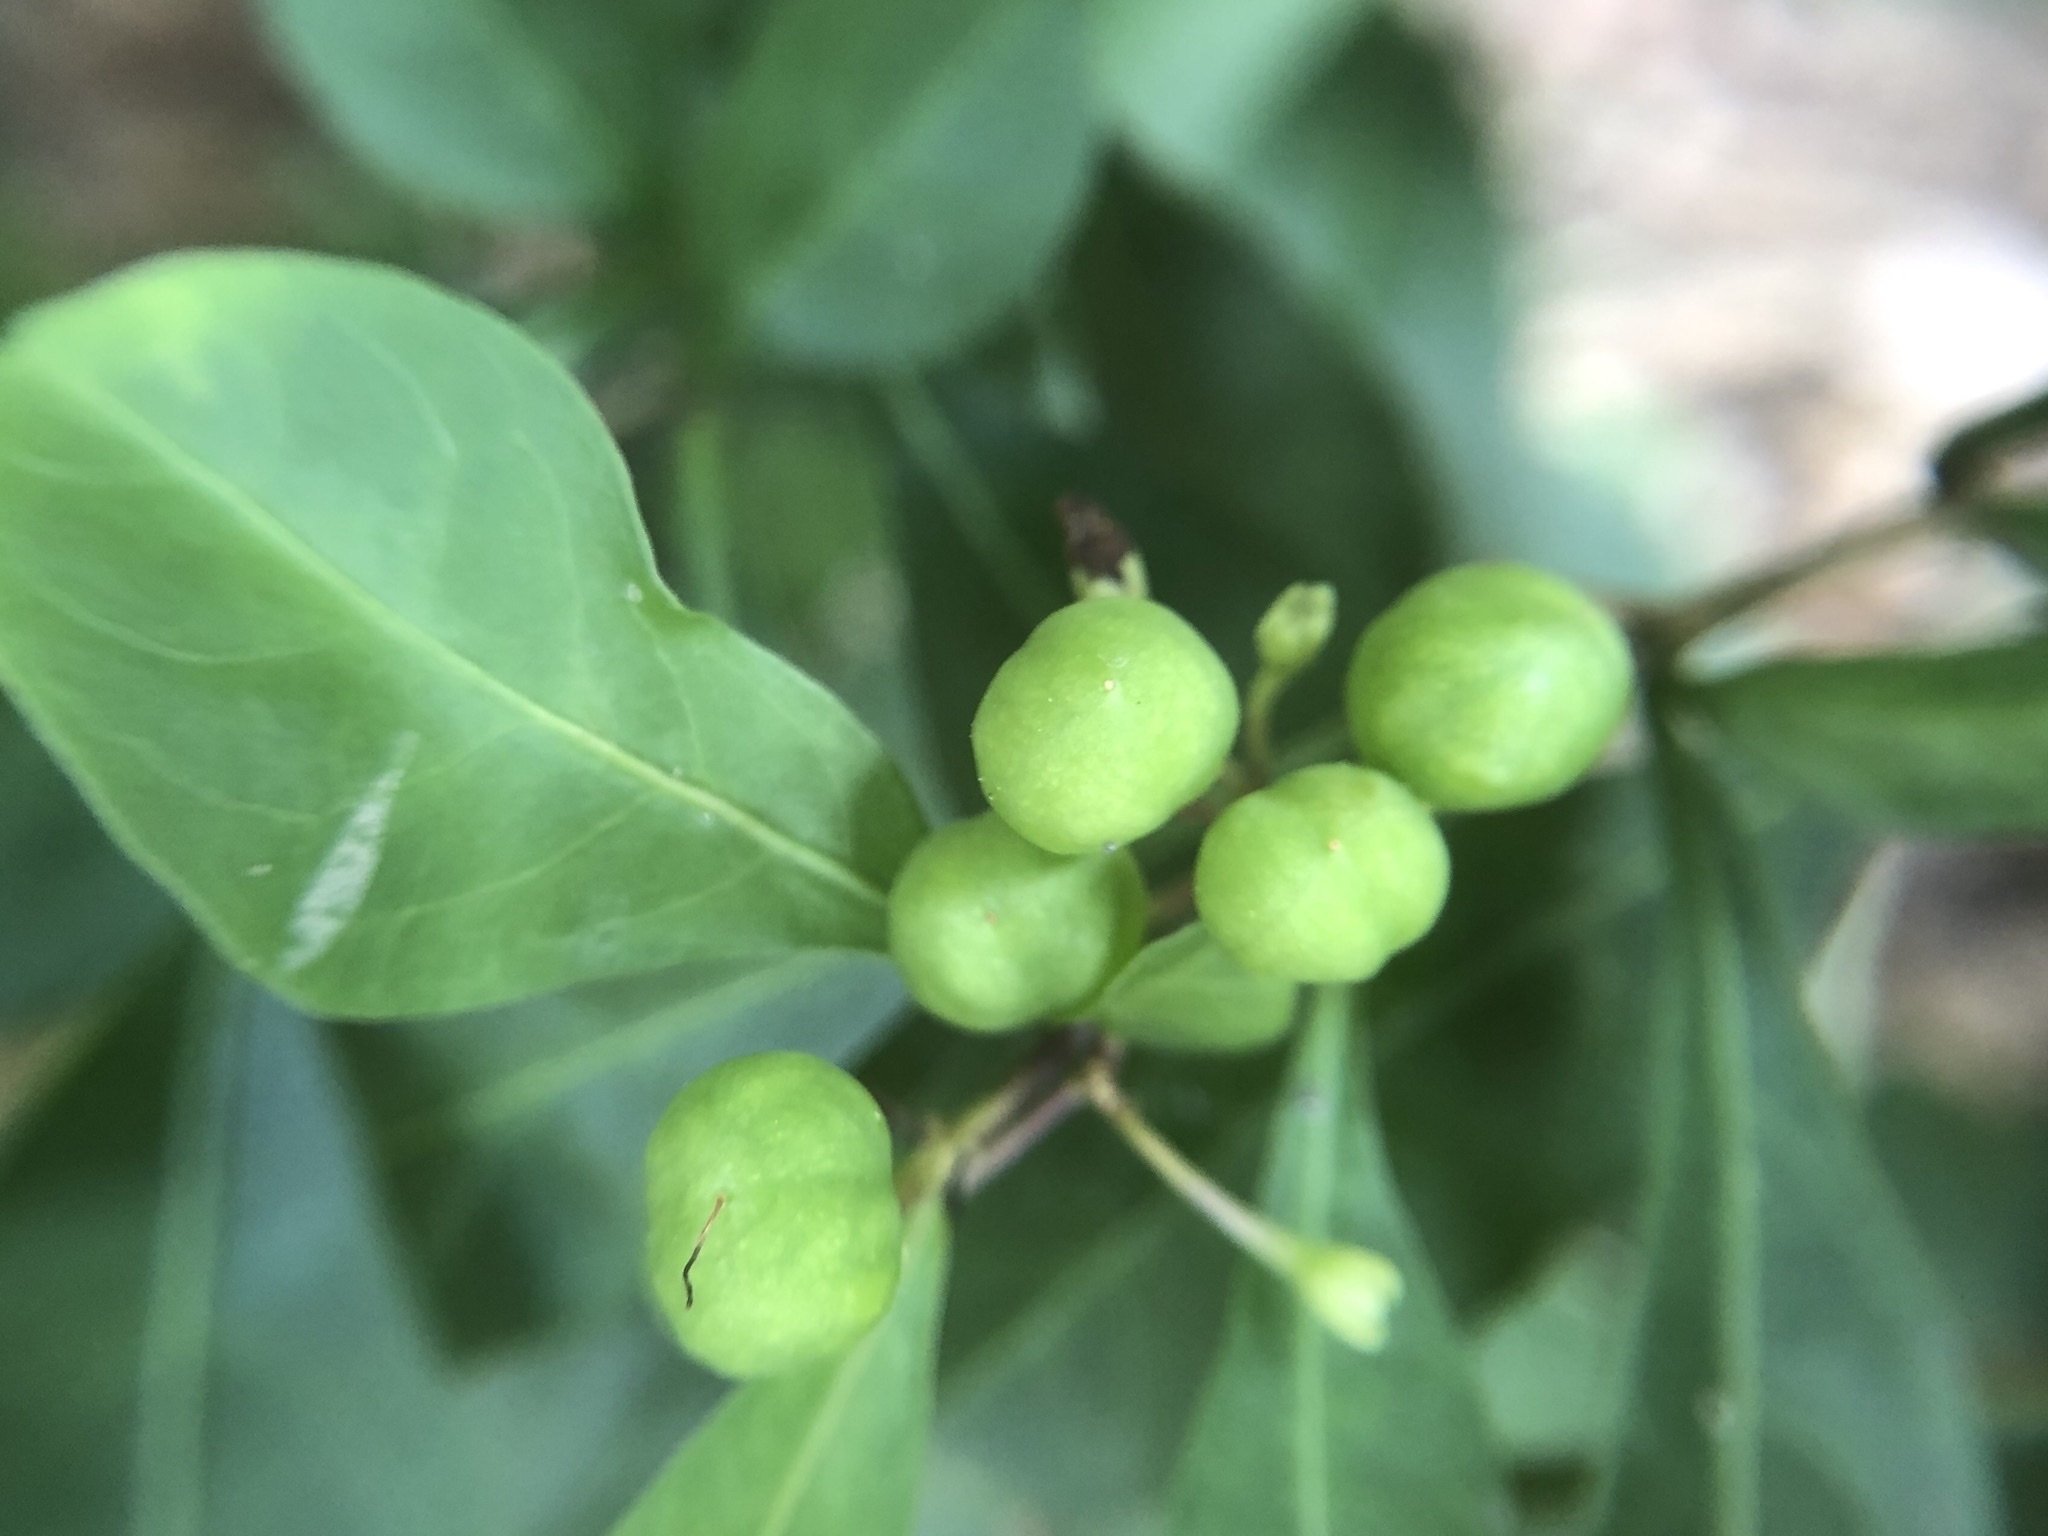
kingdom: Plantae
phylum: Tracheophyta
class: Magnoliopsida
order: Solanales
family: Solanaceae
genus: Solanum
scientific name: Solanum diphyllum
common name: Twoleaf nightshade
